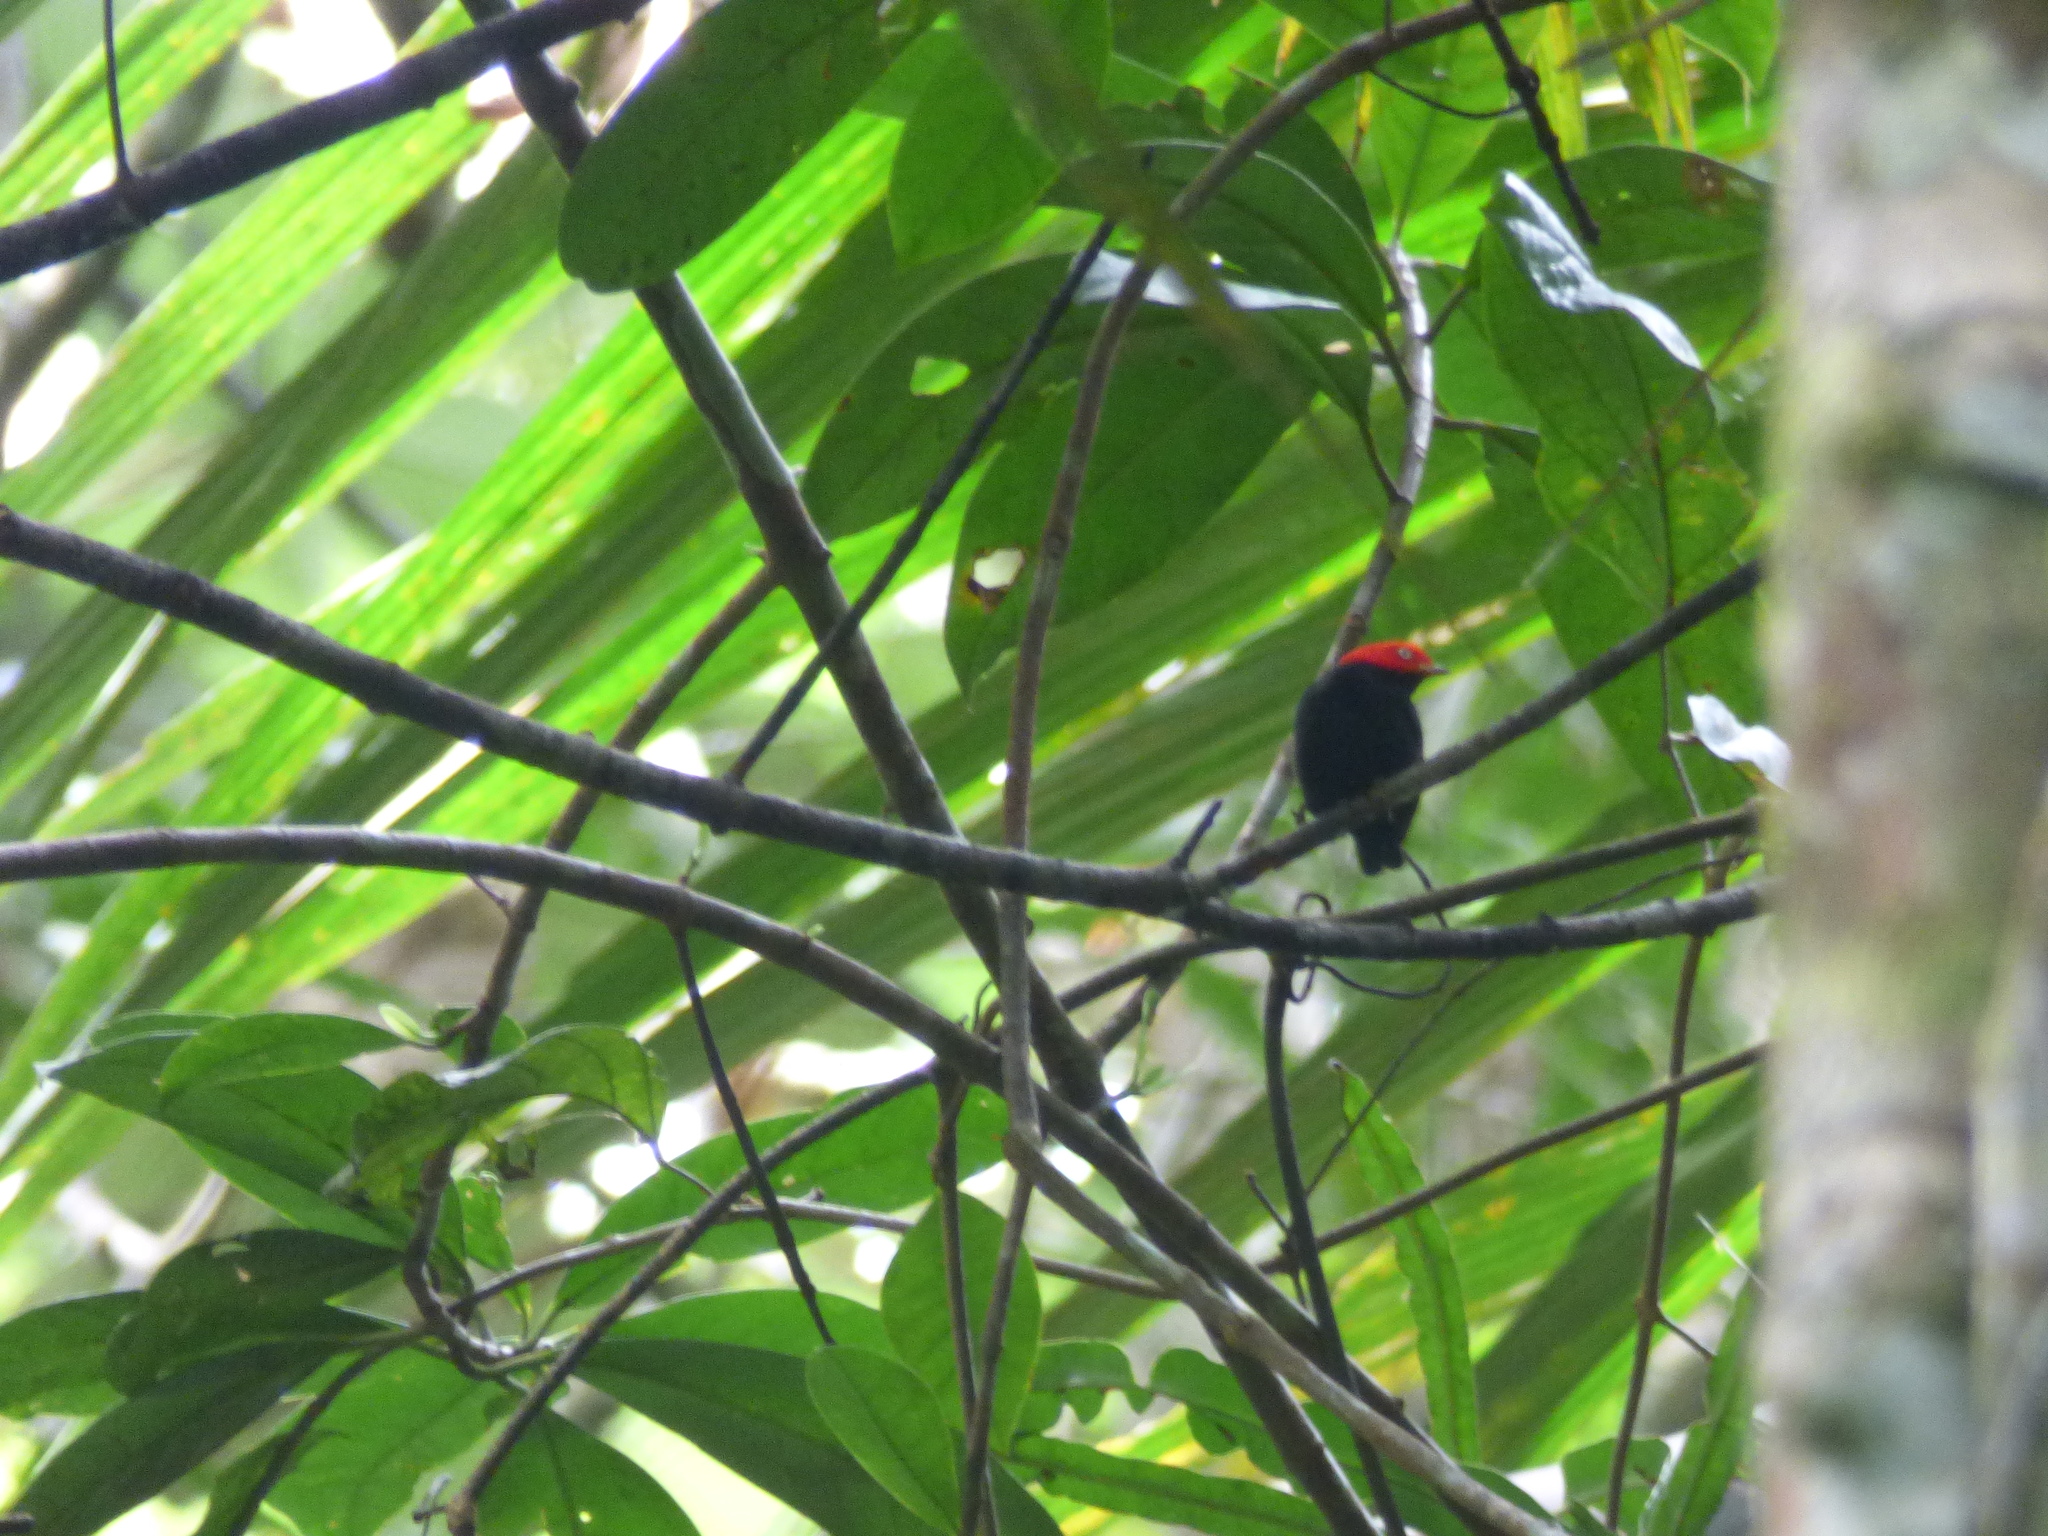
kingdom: Animalia
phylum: Chordata
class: Aves
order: Passeriformes
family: Pipridae
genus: Pipra
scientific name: Pipra mentalis
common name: Red-capped manakin
